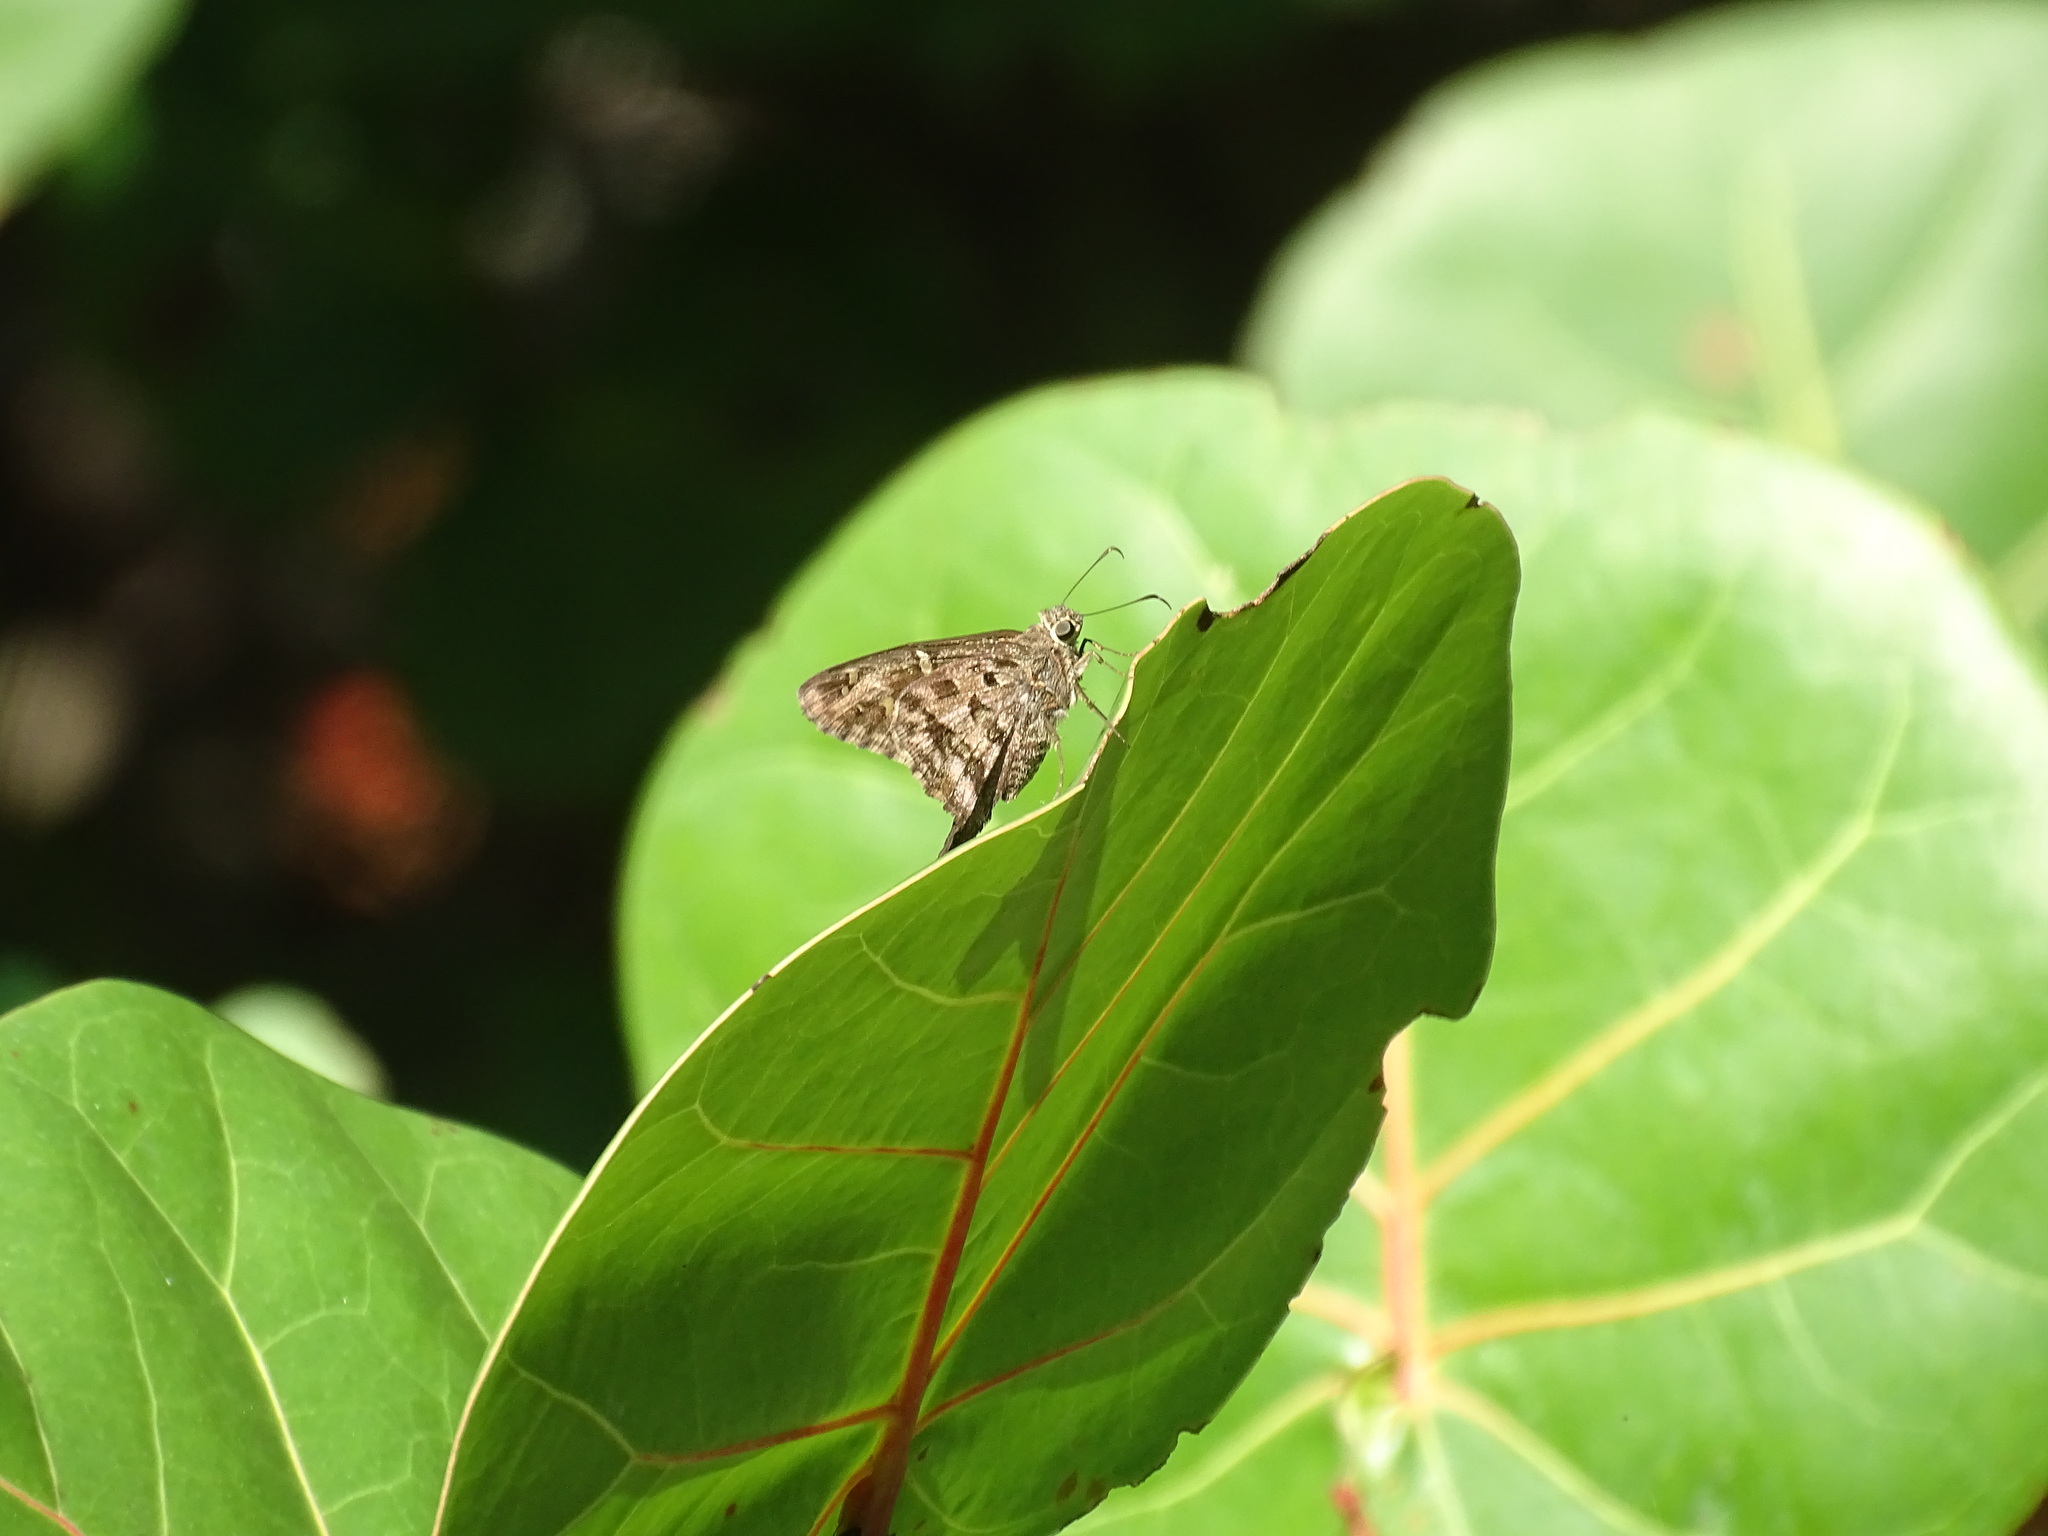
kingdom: Animalia
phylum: Arthropoda
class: Insecta
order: Lepidoptera
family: Hesperiidae
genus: Thorybes
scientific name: Thorybes
